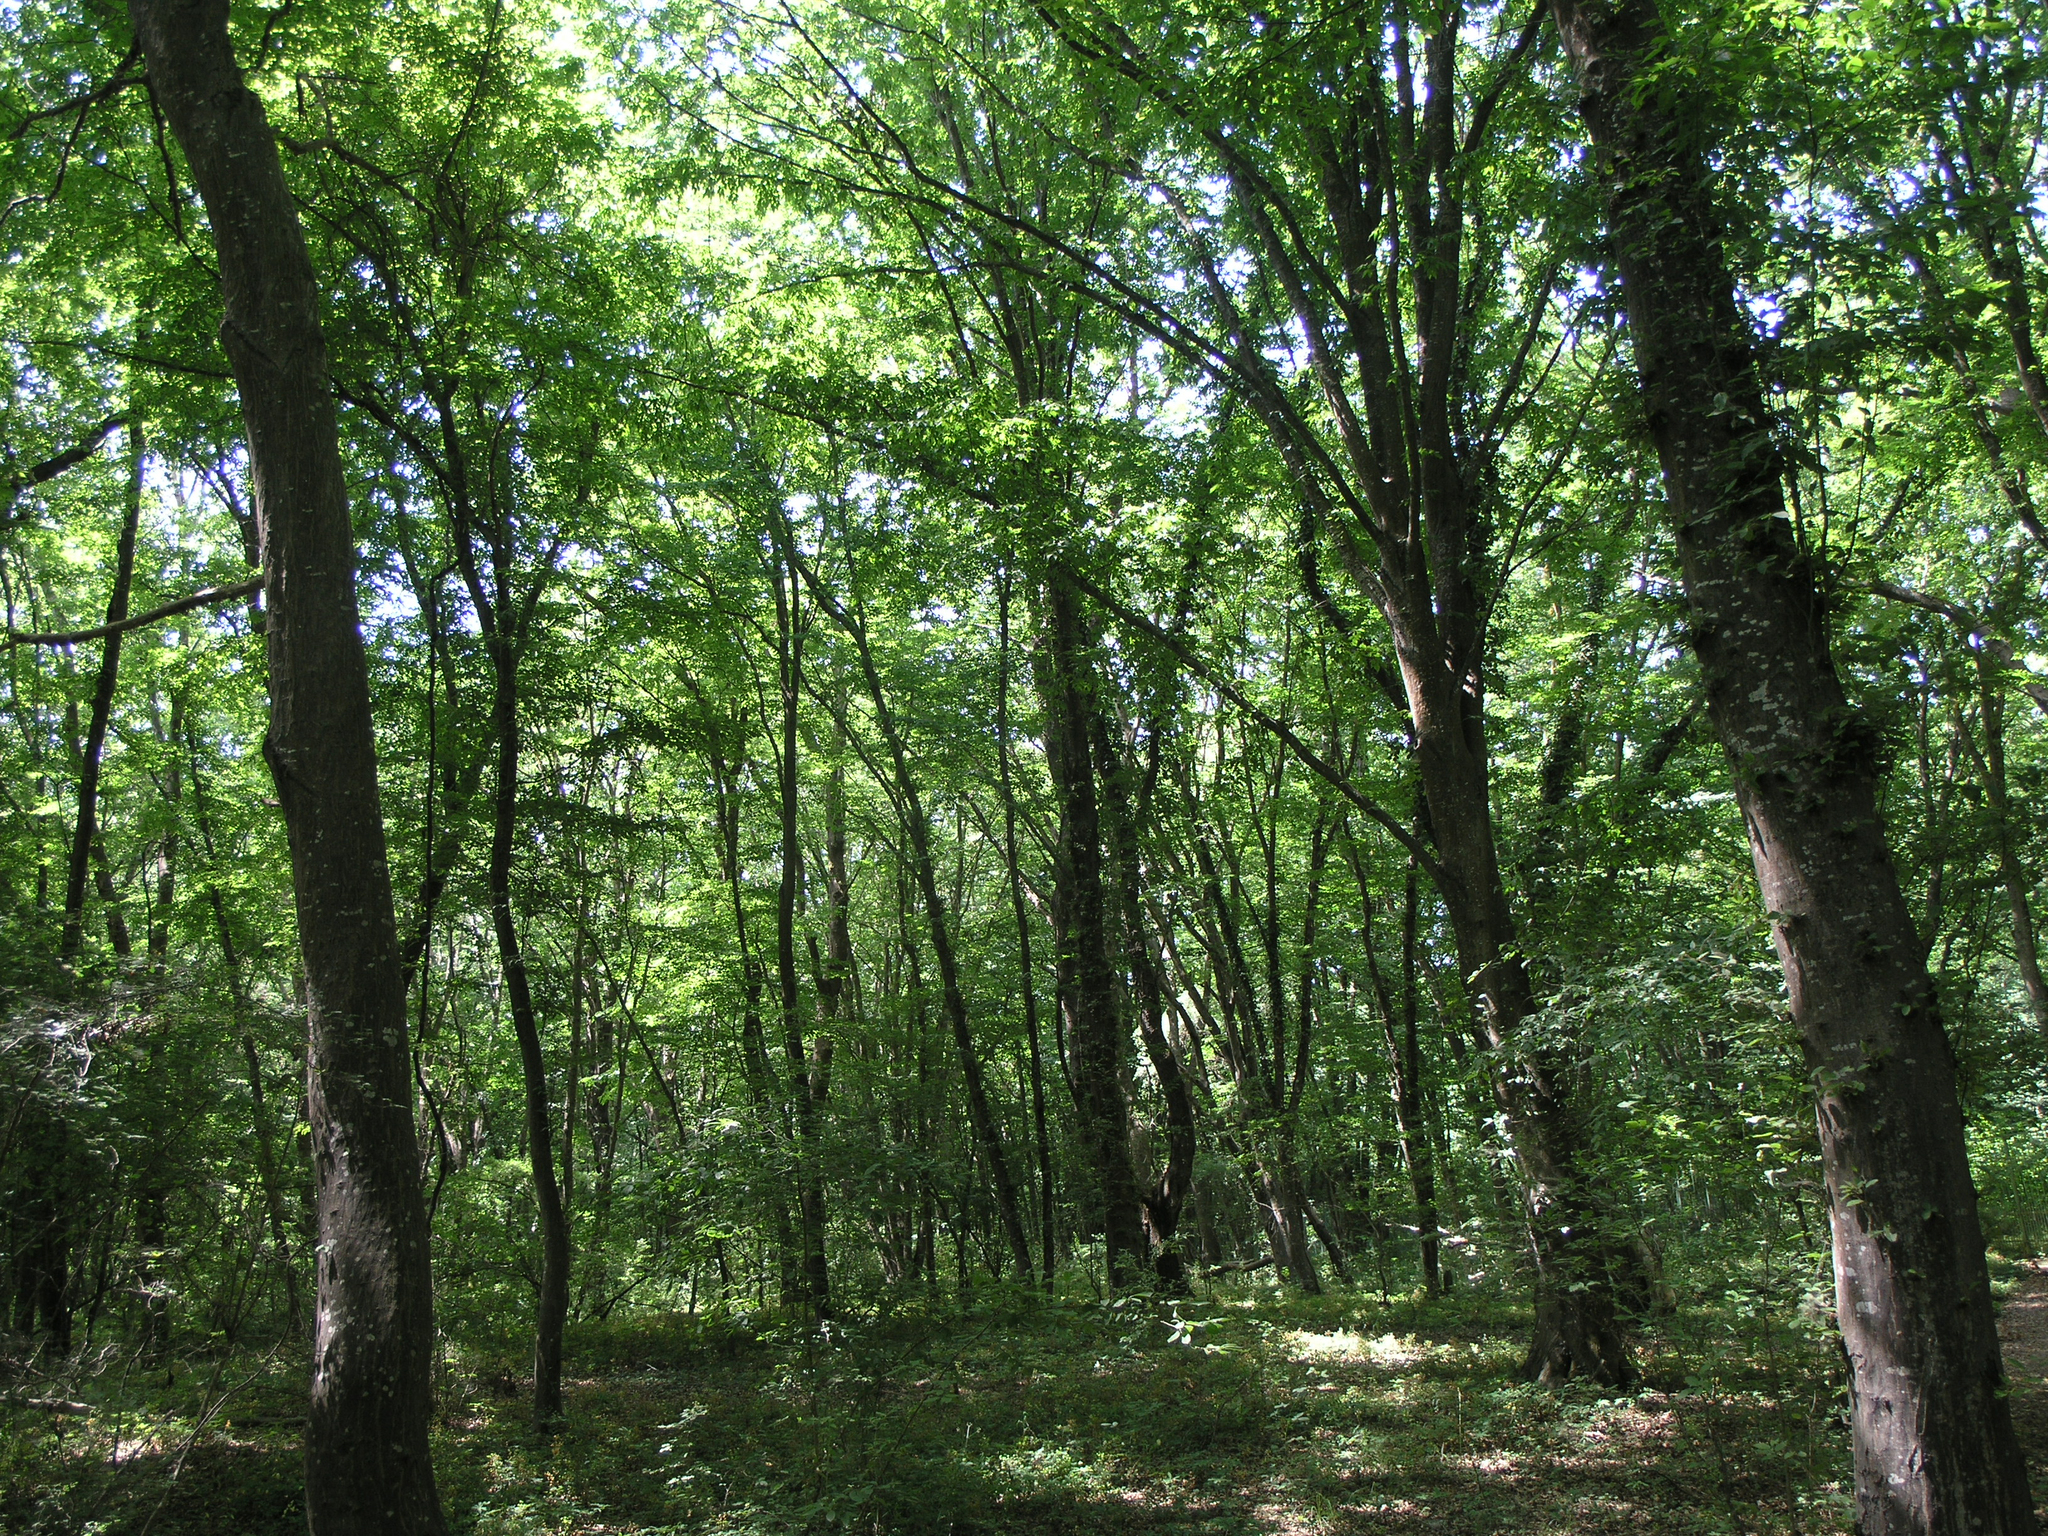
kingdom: Plantae
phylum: Tracheophyta
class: Magnoliopsida
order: Fagales
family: Betulaceae
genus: Carpinus
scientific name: Carpinus betulus
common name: Hornbeam
